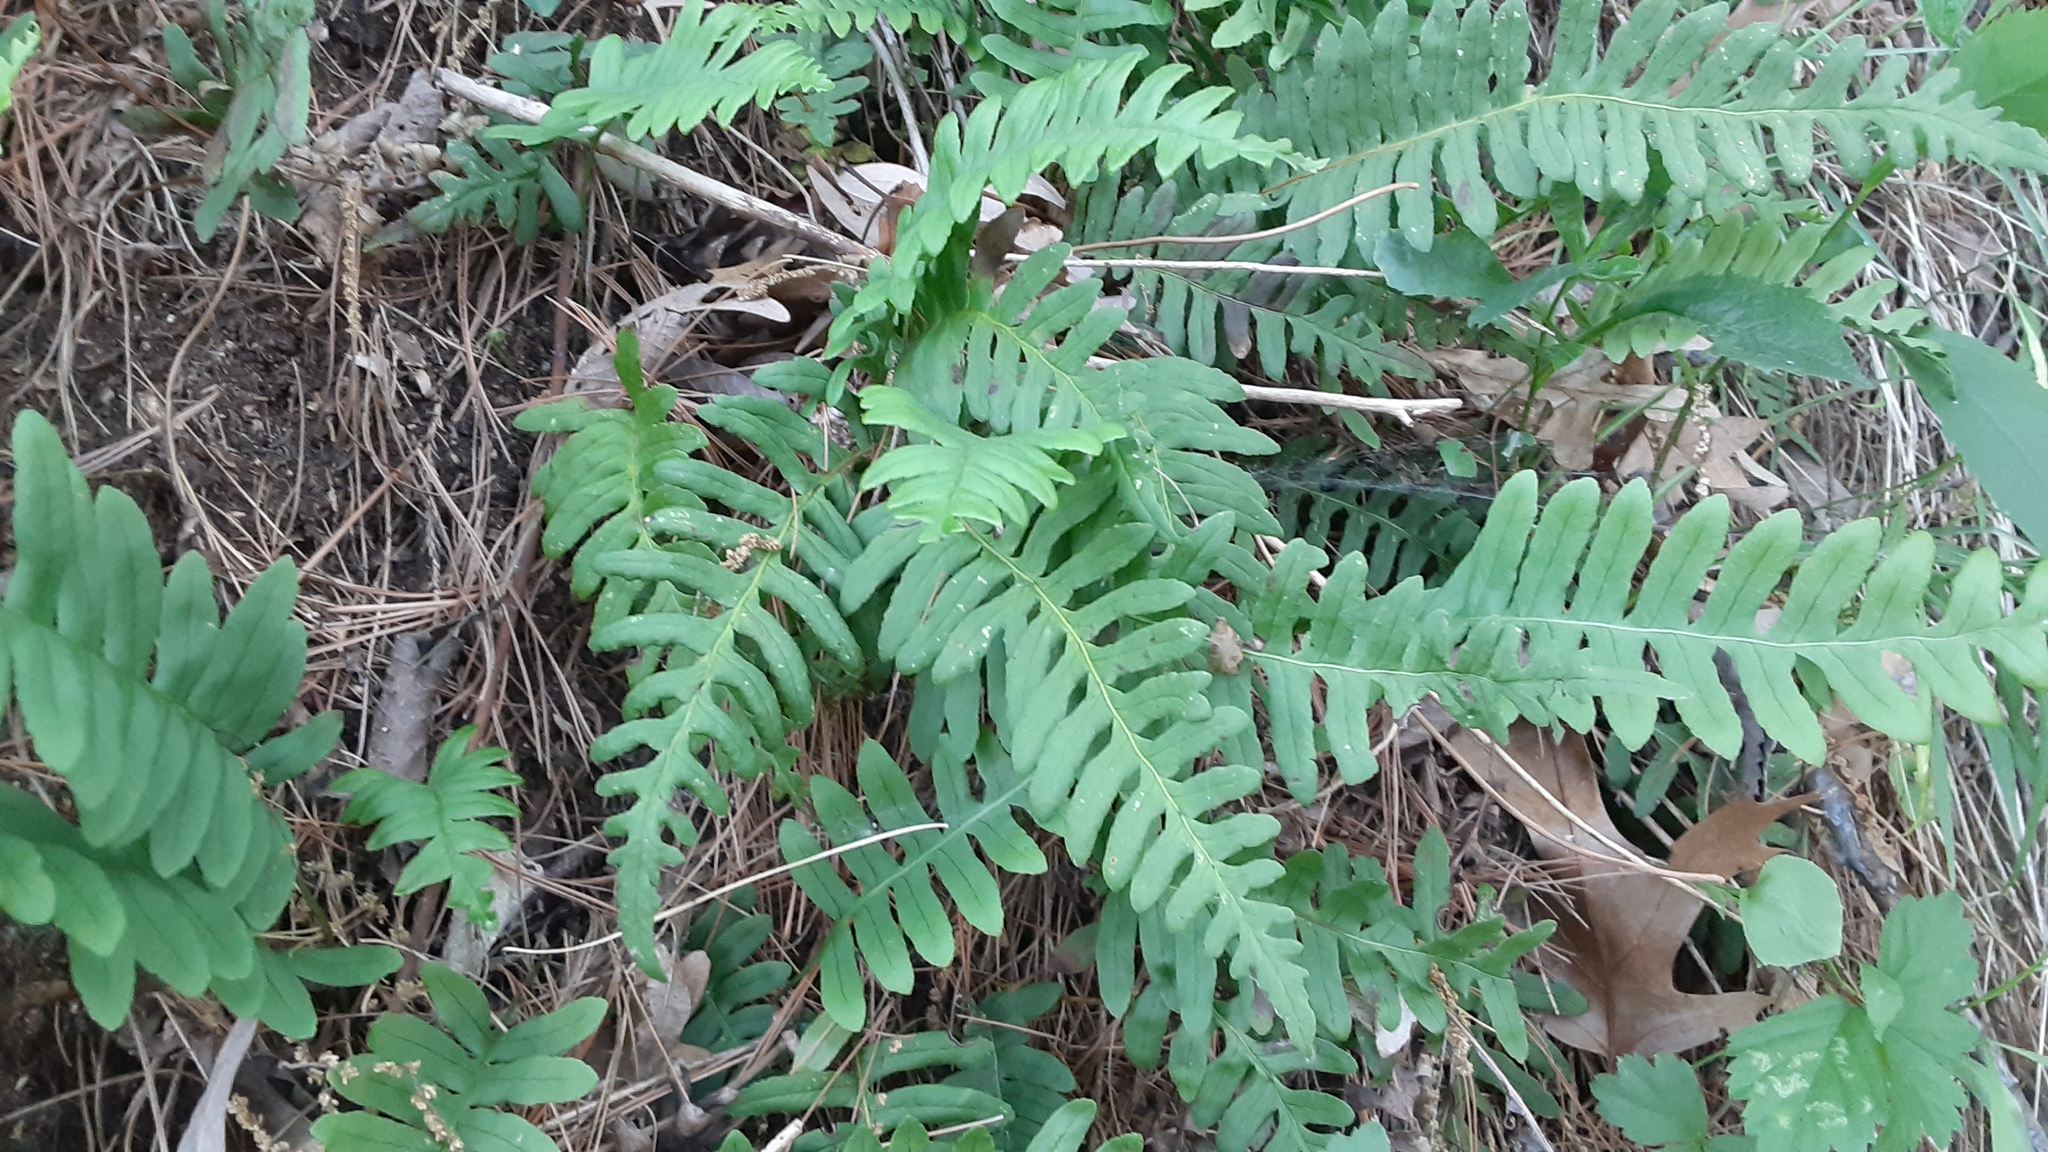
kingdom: Plantae
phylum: Tracheophyta
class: Polypodiopsida
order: Polypodiales
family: Polypodiaceae
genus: Polypodium
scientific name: Polypodium virginianum
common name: American wall fern
